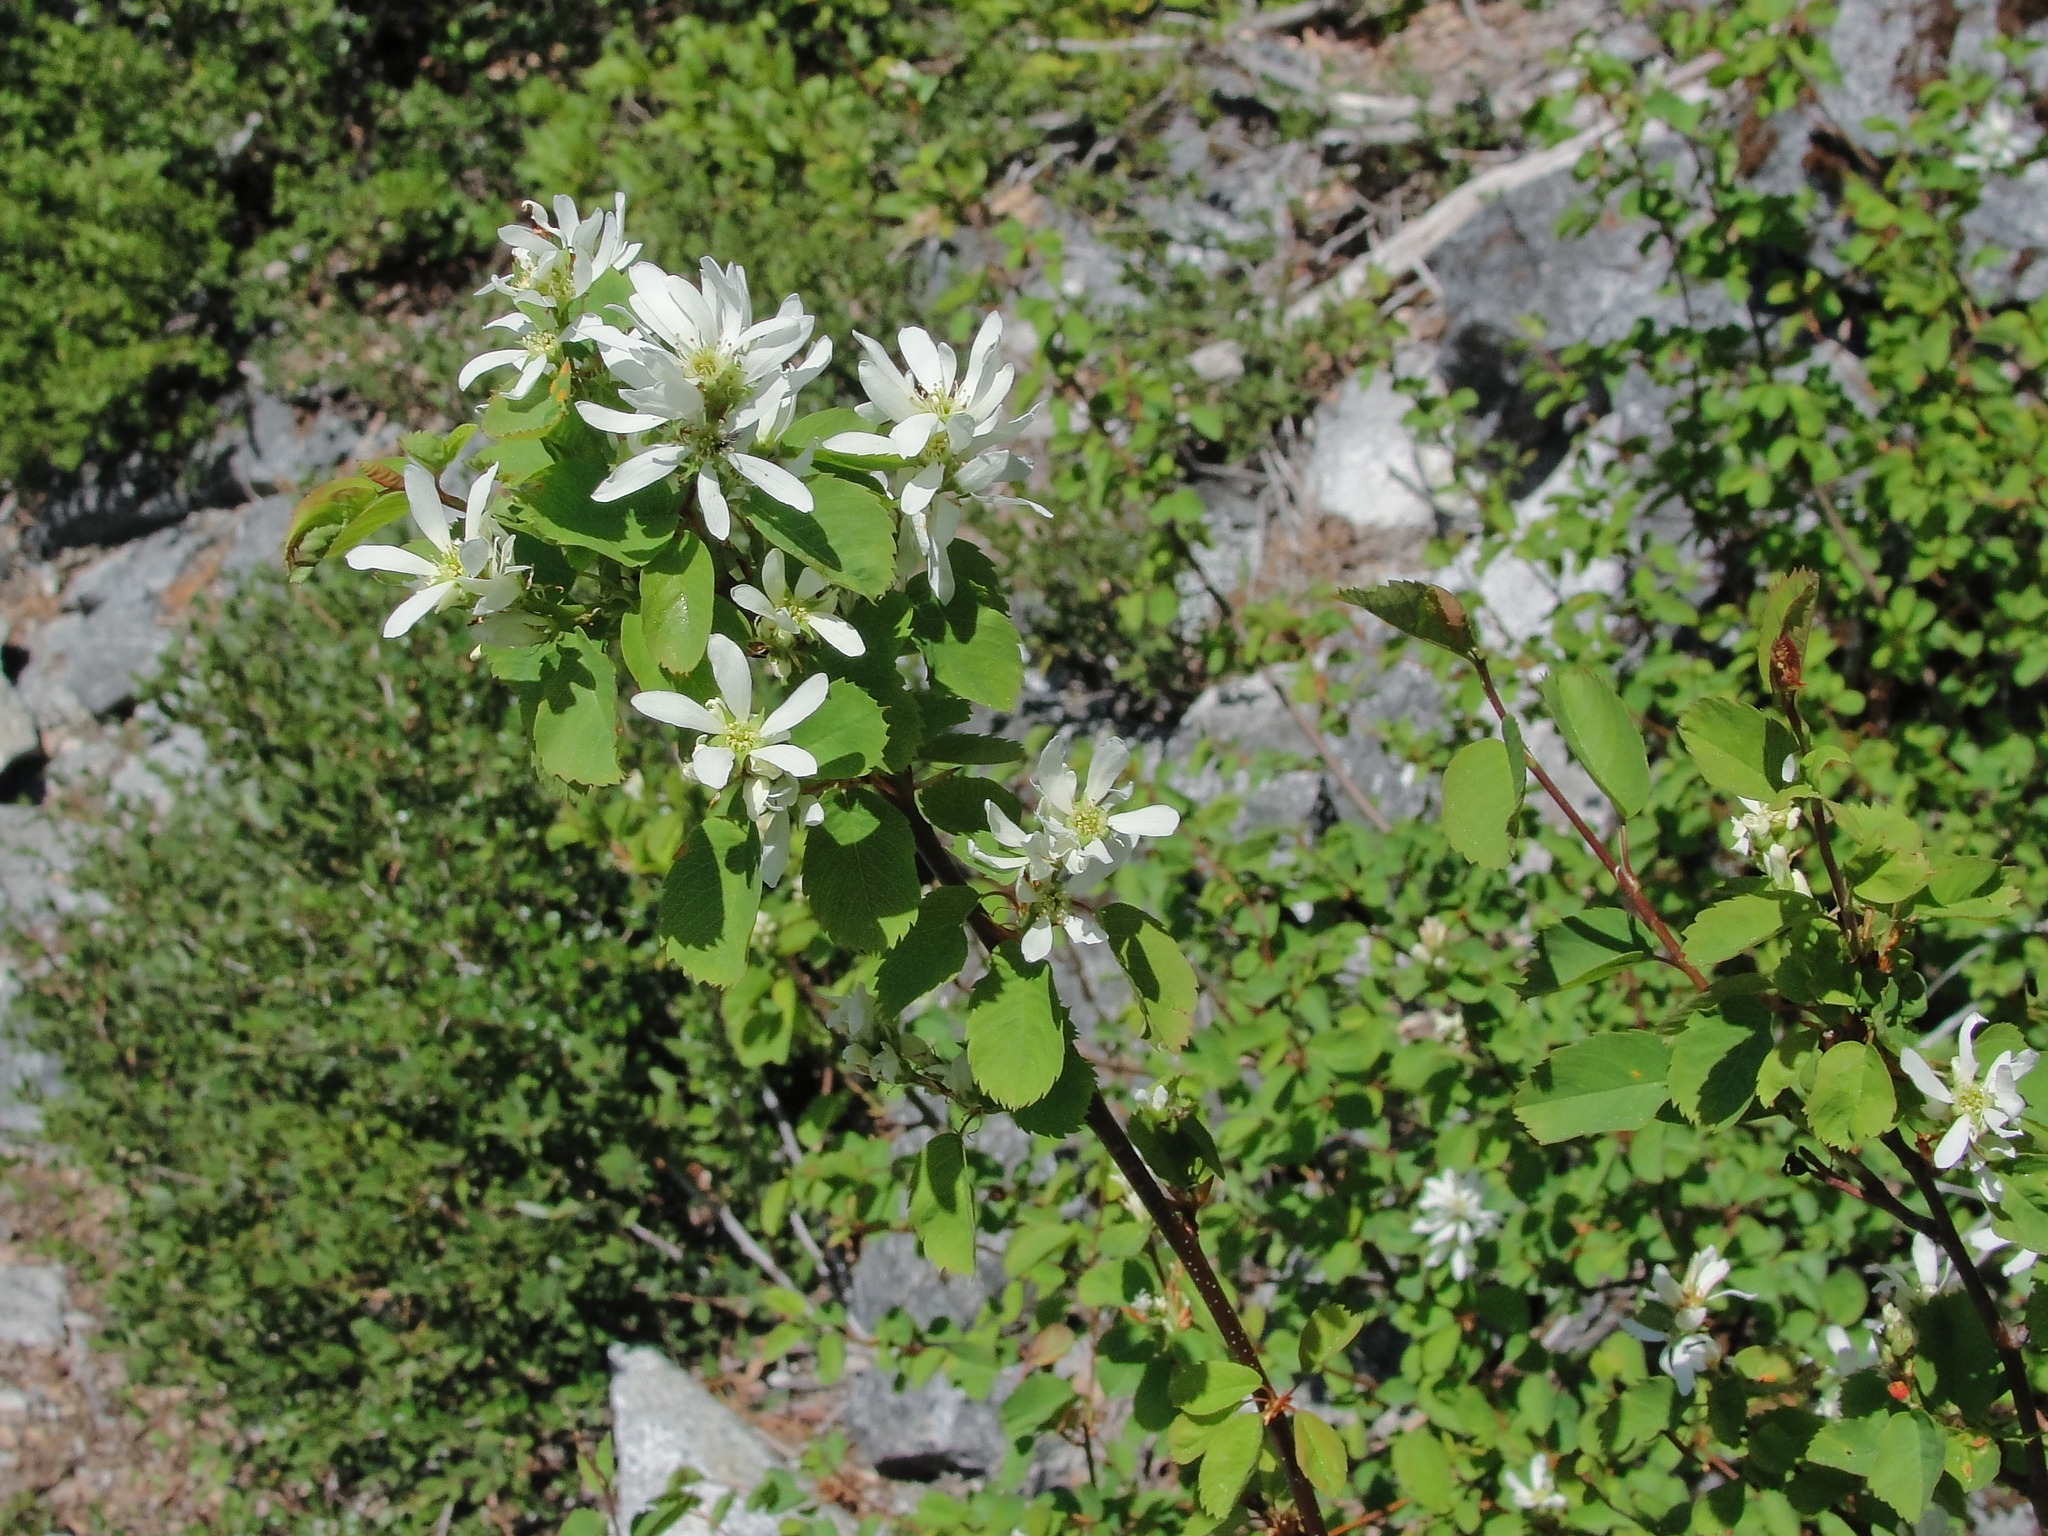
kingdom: Plantae
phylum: Tracheophyta
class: Magnoliopsida
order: Rosales
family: Rosaceae
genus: Amelanchier
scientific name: Amelanchier utahensis
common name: Utah serviceberry
